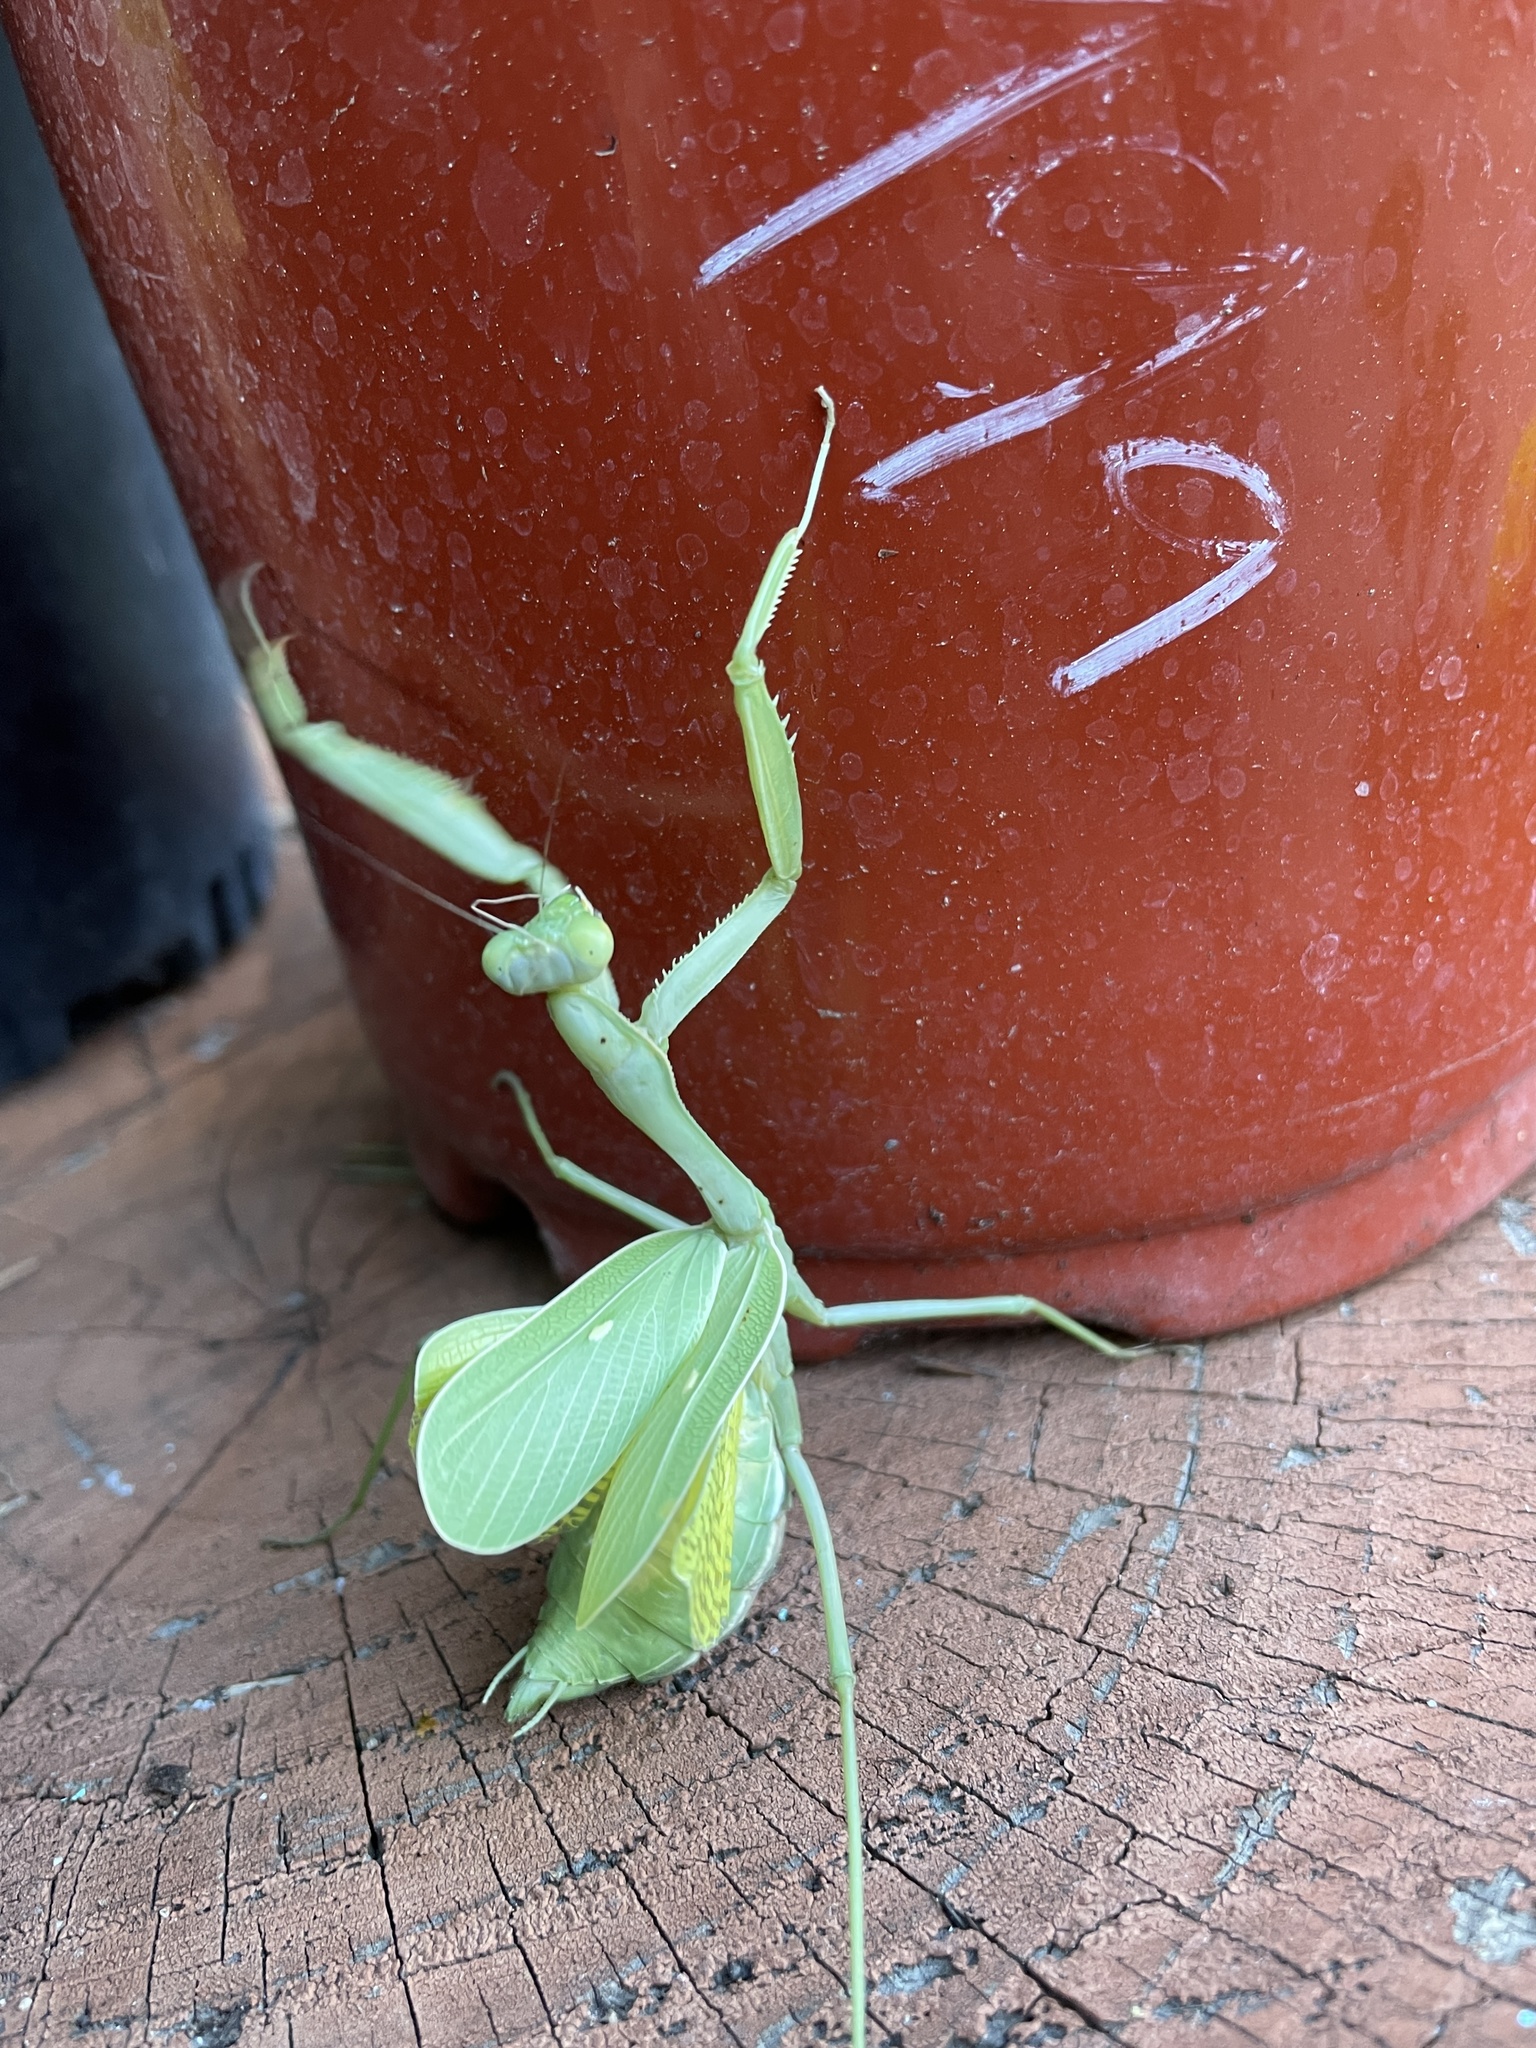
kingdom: Animalia
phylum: Arthropoda
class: Insecta
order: Mantodea
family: Mantidae
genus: Stagmomantis
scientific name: Stagmomantis limbata
